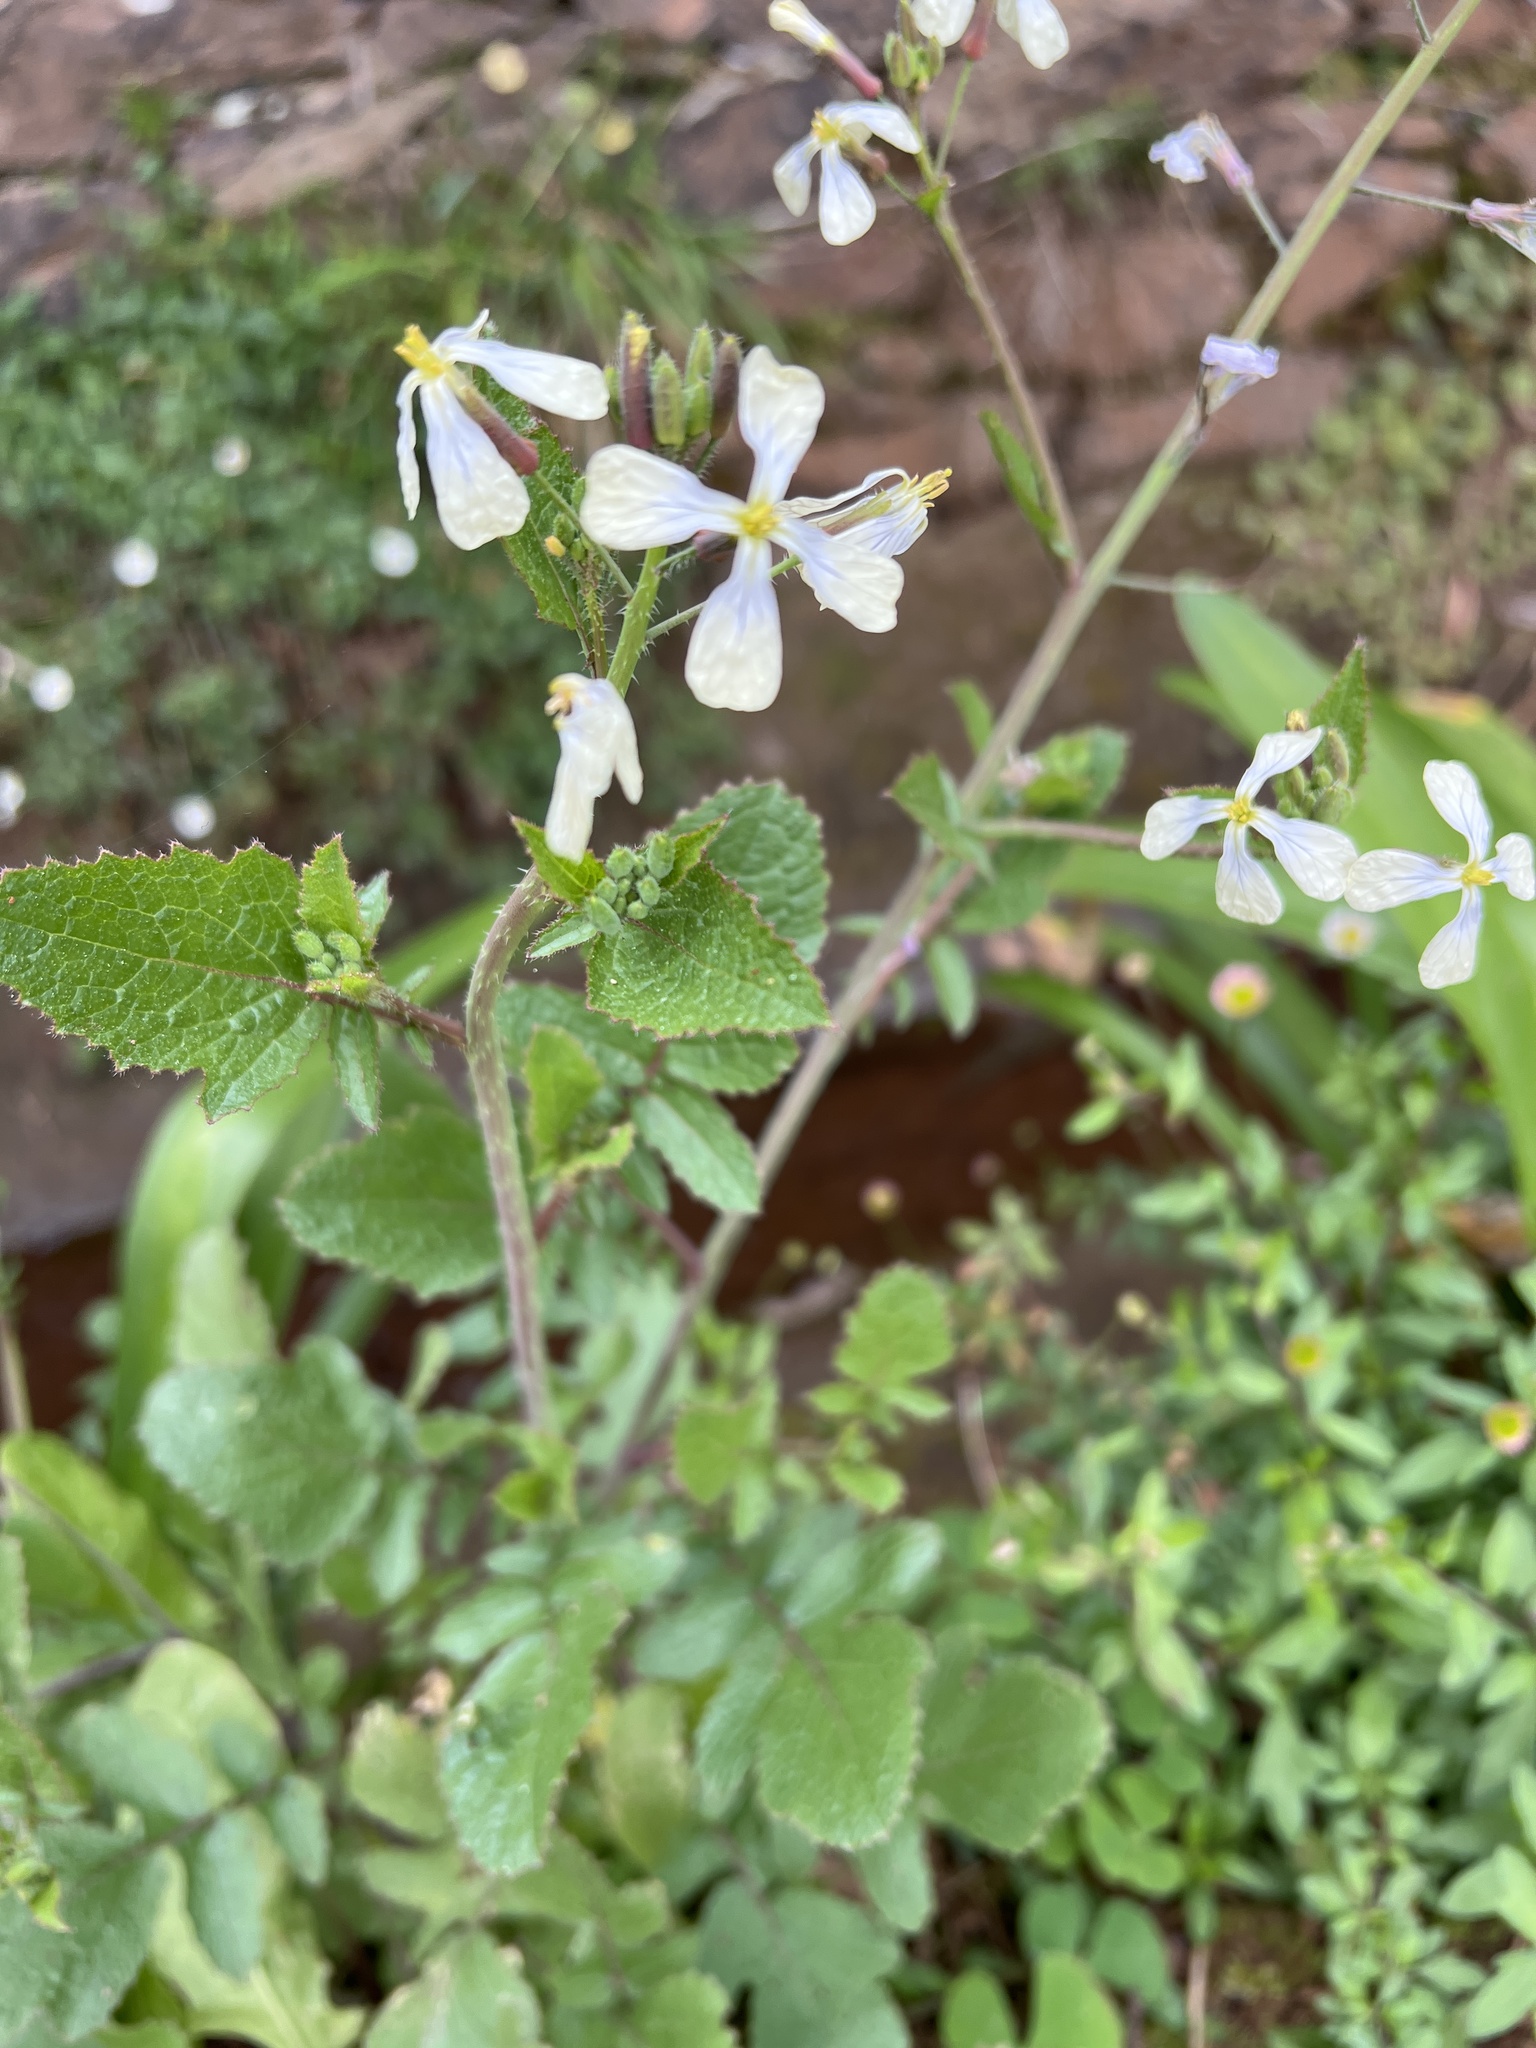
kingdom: Plantae
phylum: Tracheophyta
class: Magnoliopsida
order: Brassicales
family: Brassicaceae
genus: Raphanus
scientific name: Raphanus raphanistrum
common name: Wild radish
